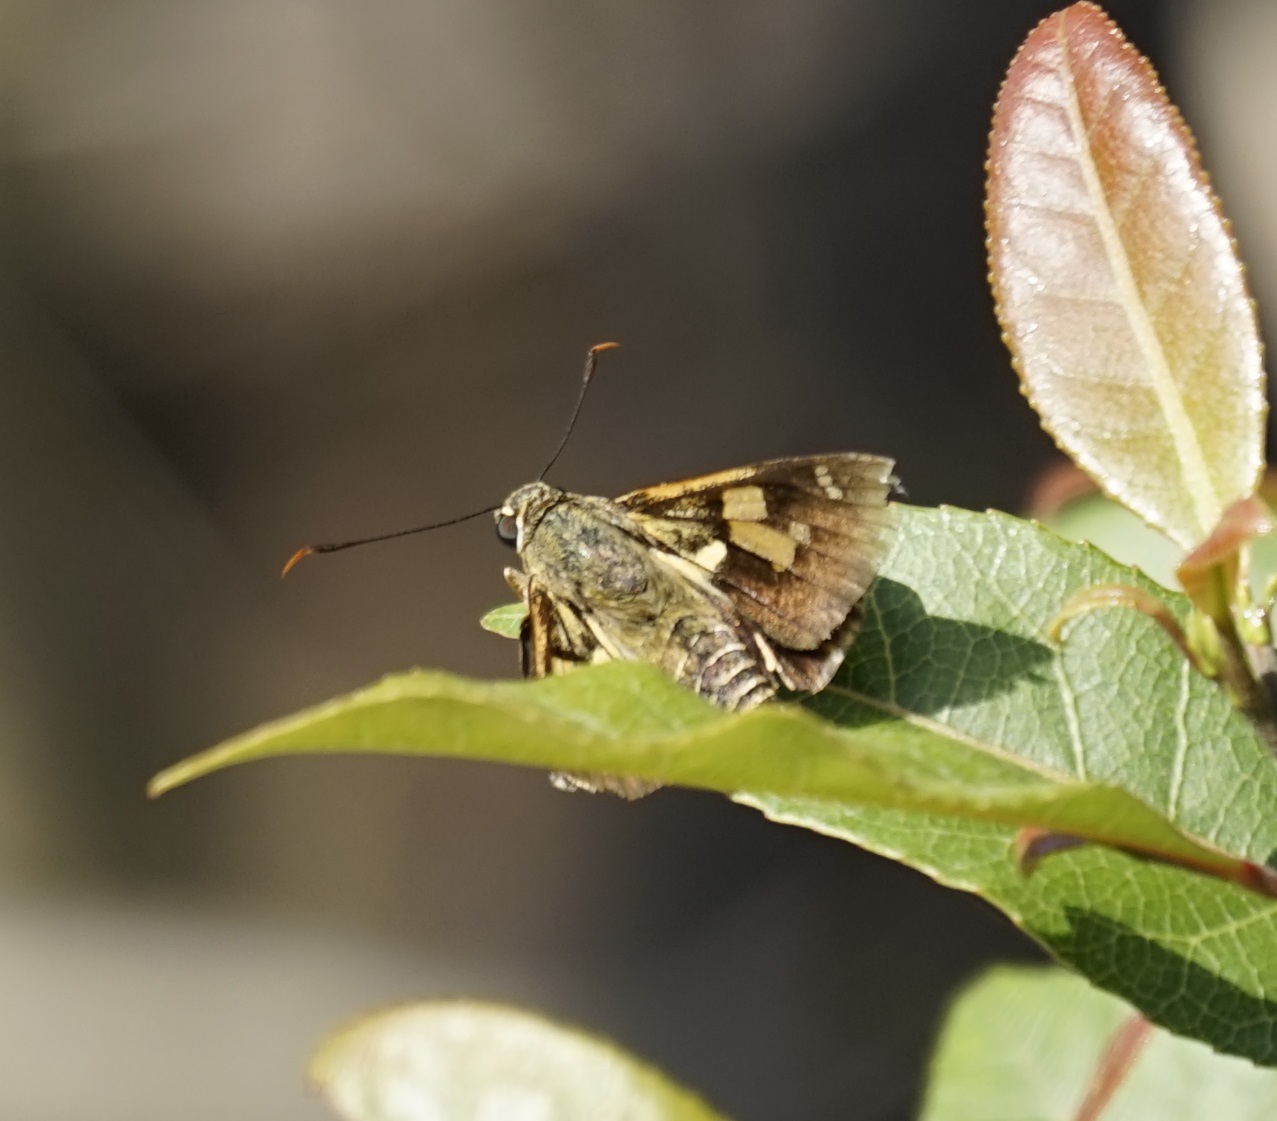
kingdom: Animalia
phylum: Arthropoda
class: Insecta
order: Lepidoptera
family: Hesperiidae
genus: Trapezites
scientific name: Trapezites symmomus
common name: Splendid ochre
